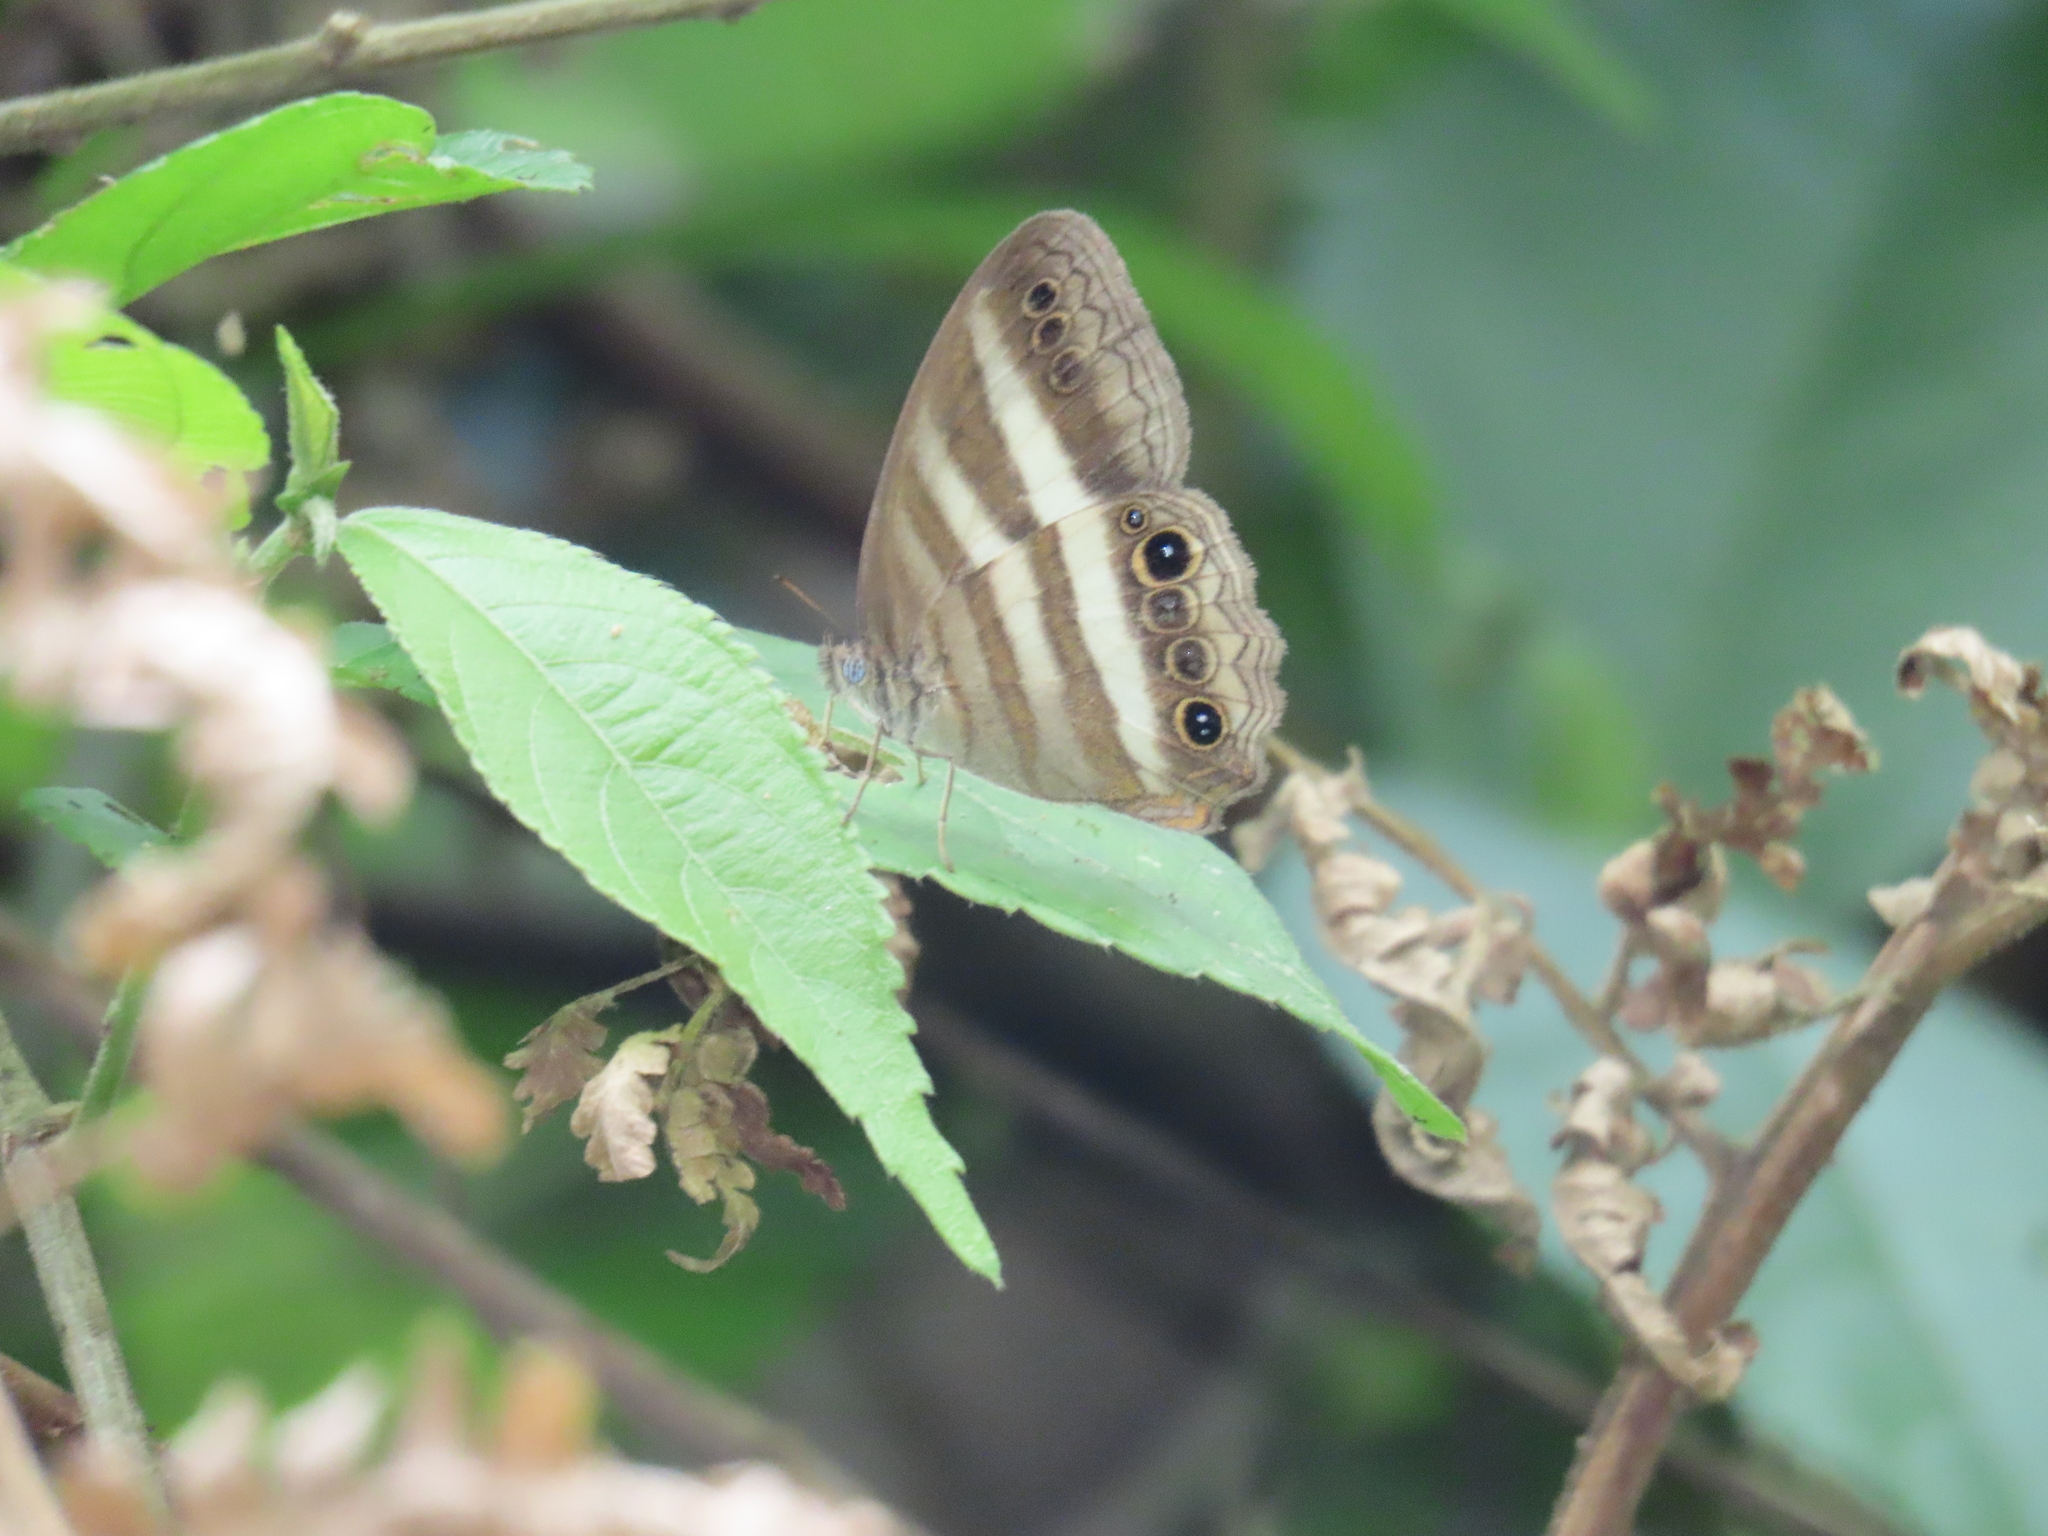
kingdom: Animalia
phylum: Arthropoda
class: Insecta
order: Lepidoptera
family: Nymphalidae
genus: Pareuptychia
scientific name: Pareuptychia hesione
